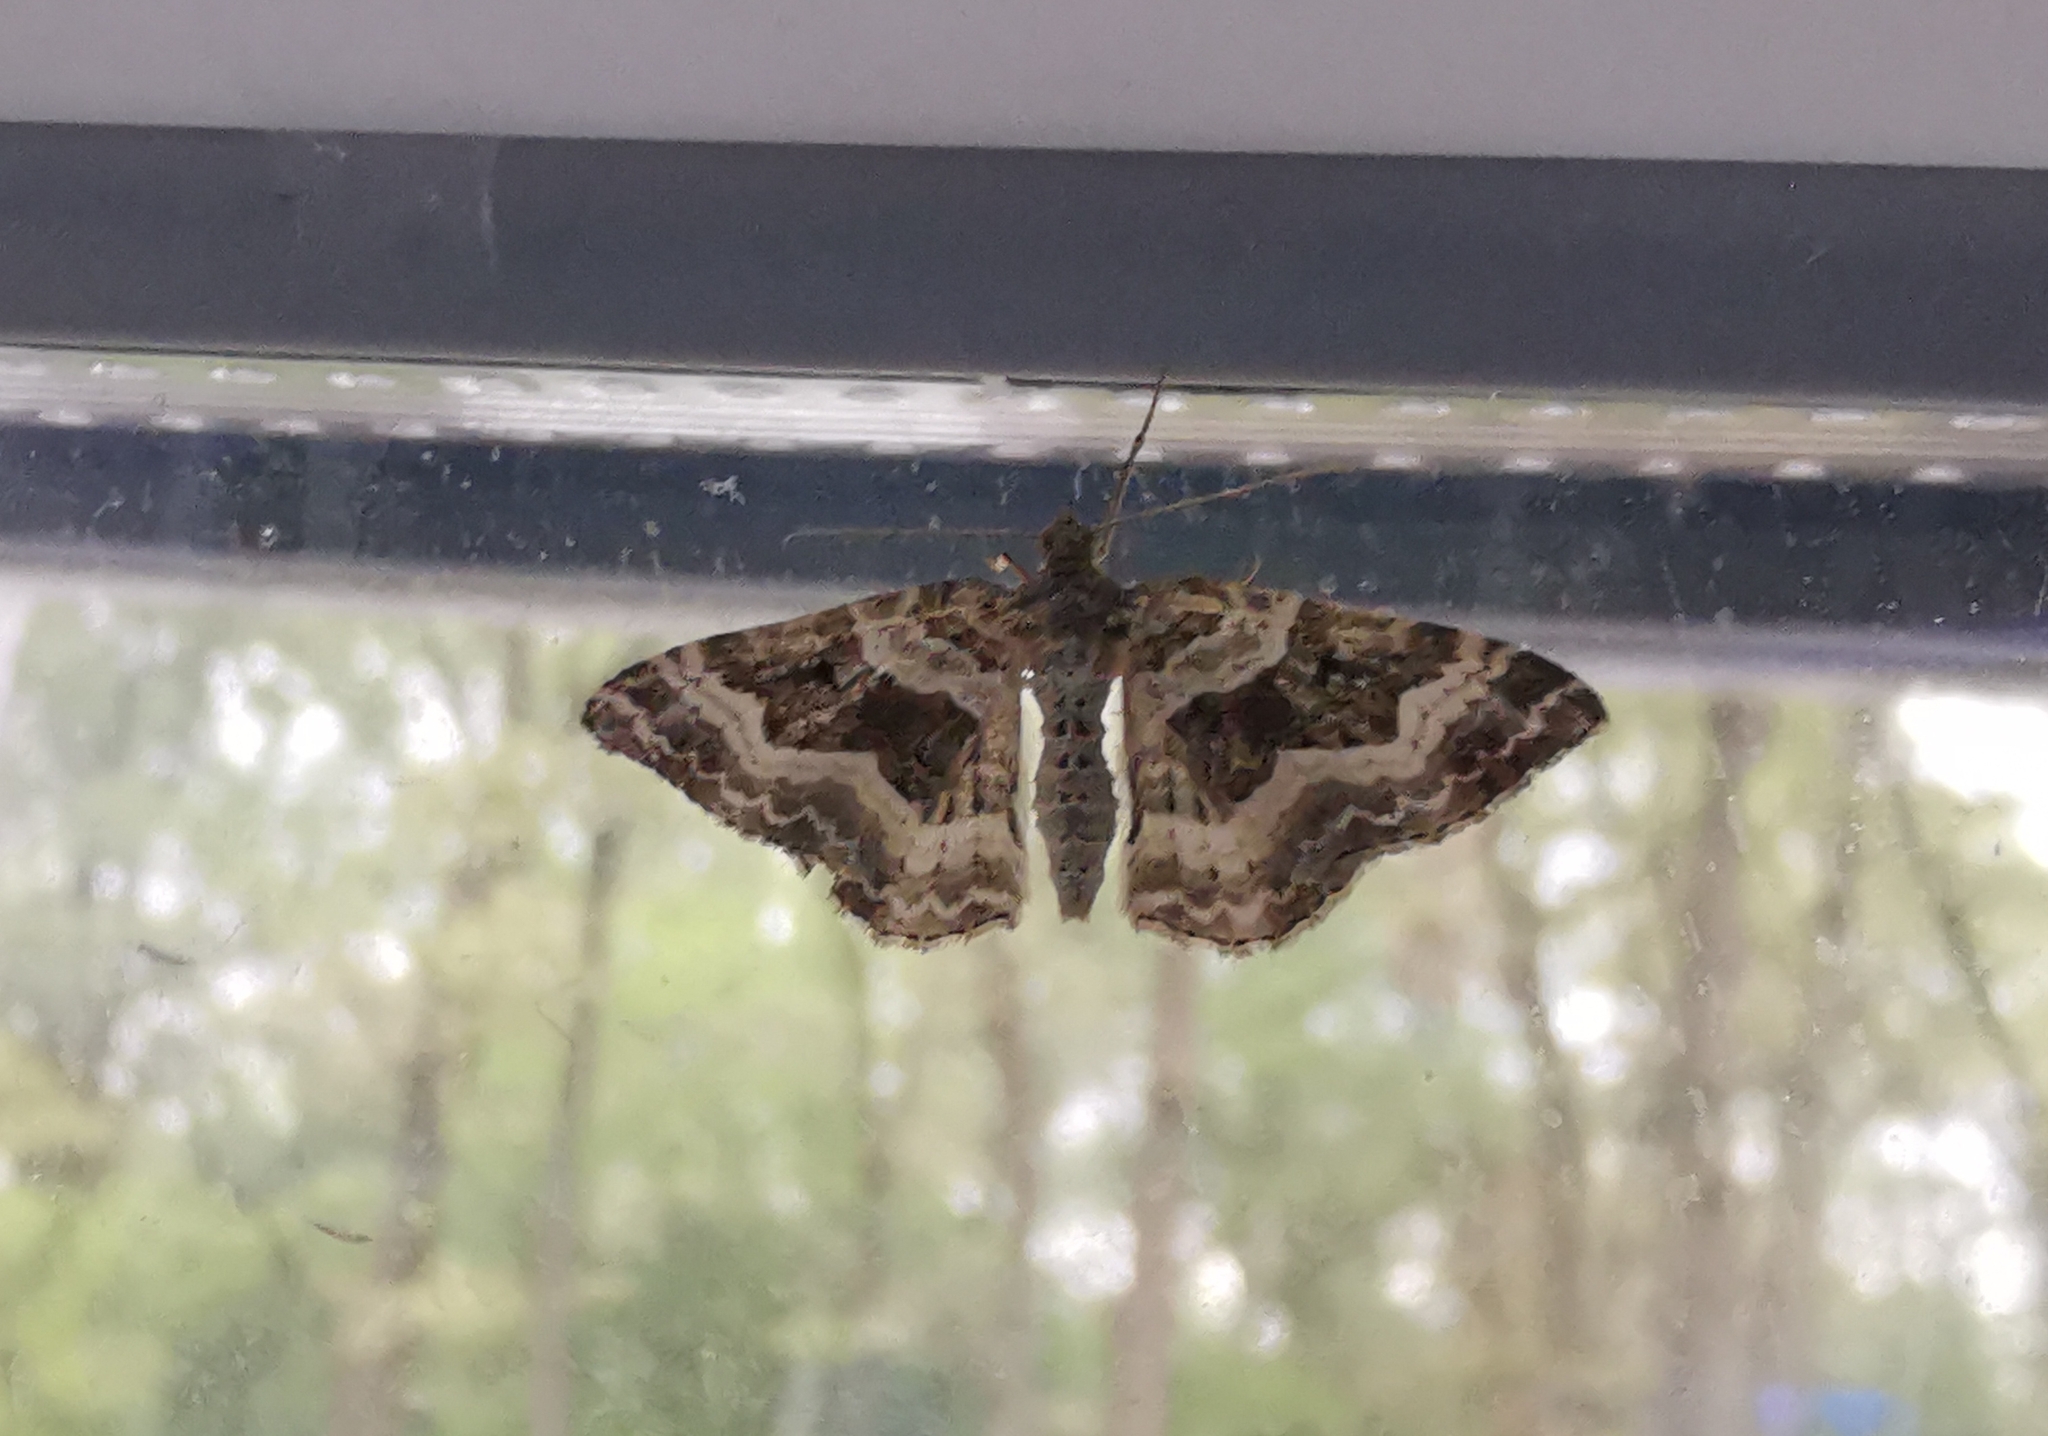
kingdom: Animalia
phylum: Arthropoda
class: Insecta
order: Lepidoptera
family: Geometridae
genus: Epirrhoe
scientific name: Epirrhoe alternata
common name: Common carpet
